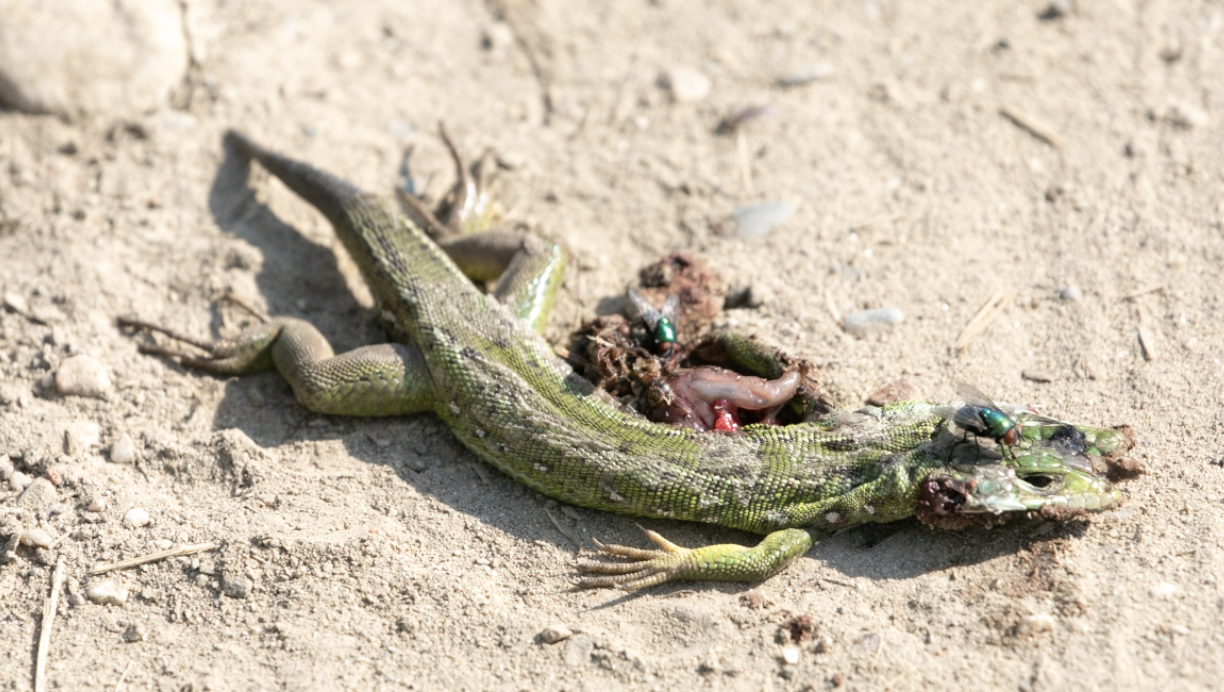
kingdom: Animalia
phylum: Chordata
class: Squamata
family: Lacertidae
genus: Lacerta
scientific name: Lacerta bilineata
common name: Western green lizard
